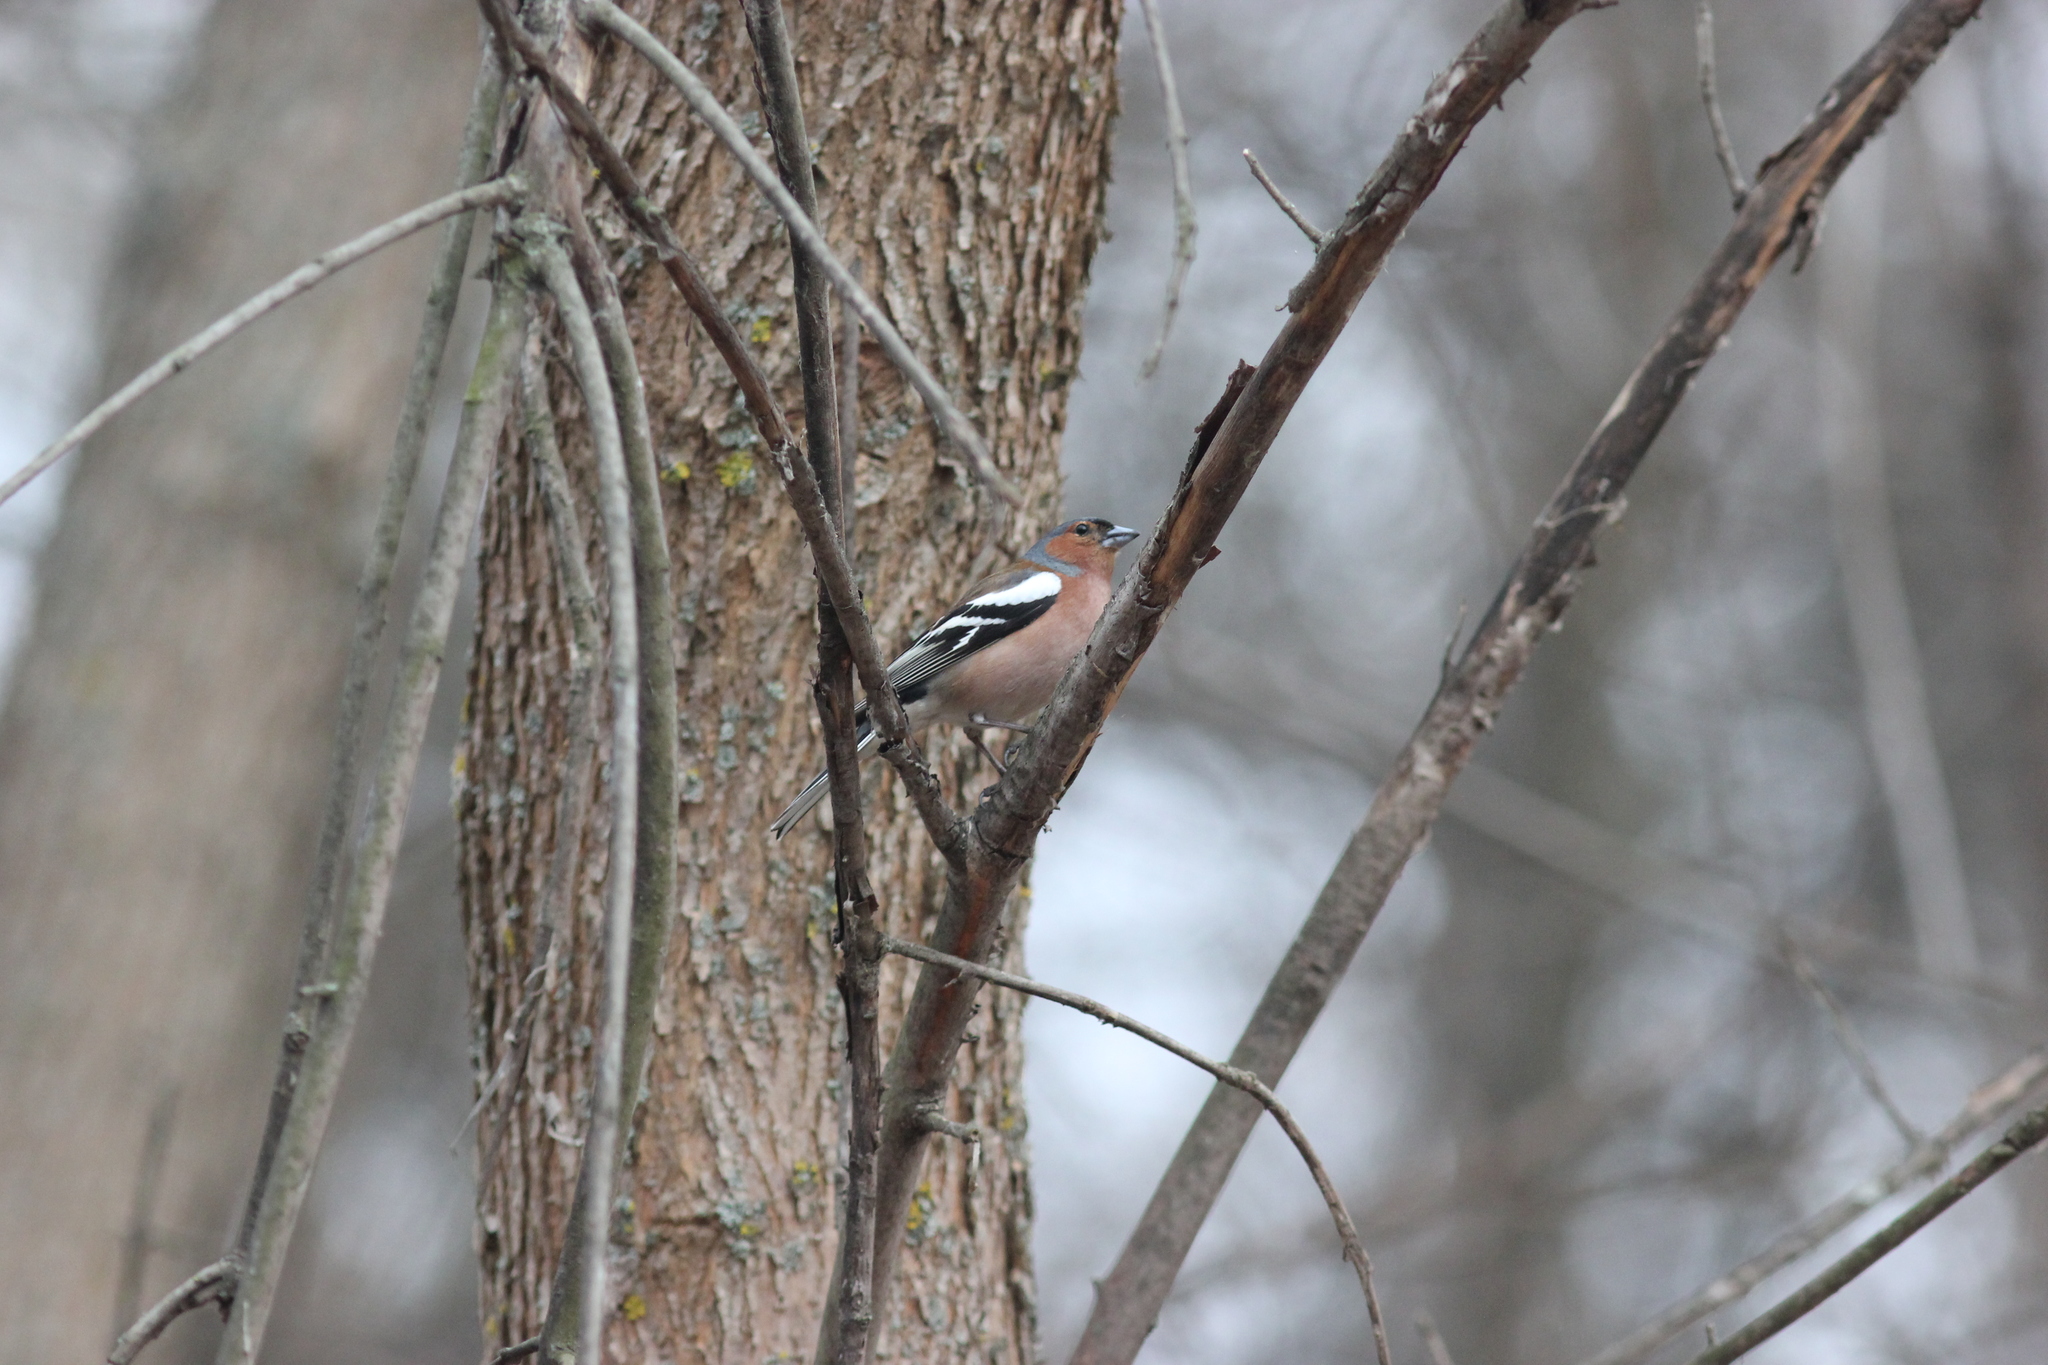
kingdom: Animalia
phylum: Chordata
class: Aves
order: Passeriformes
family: Fringillidae
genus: Fringilla
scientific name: Fringilla coelebs
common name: Common chaffinch
